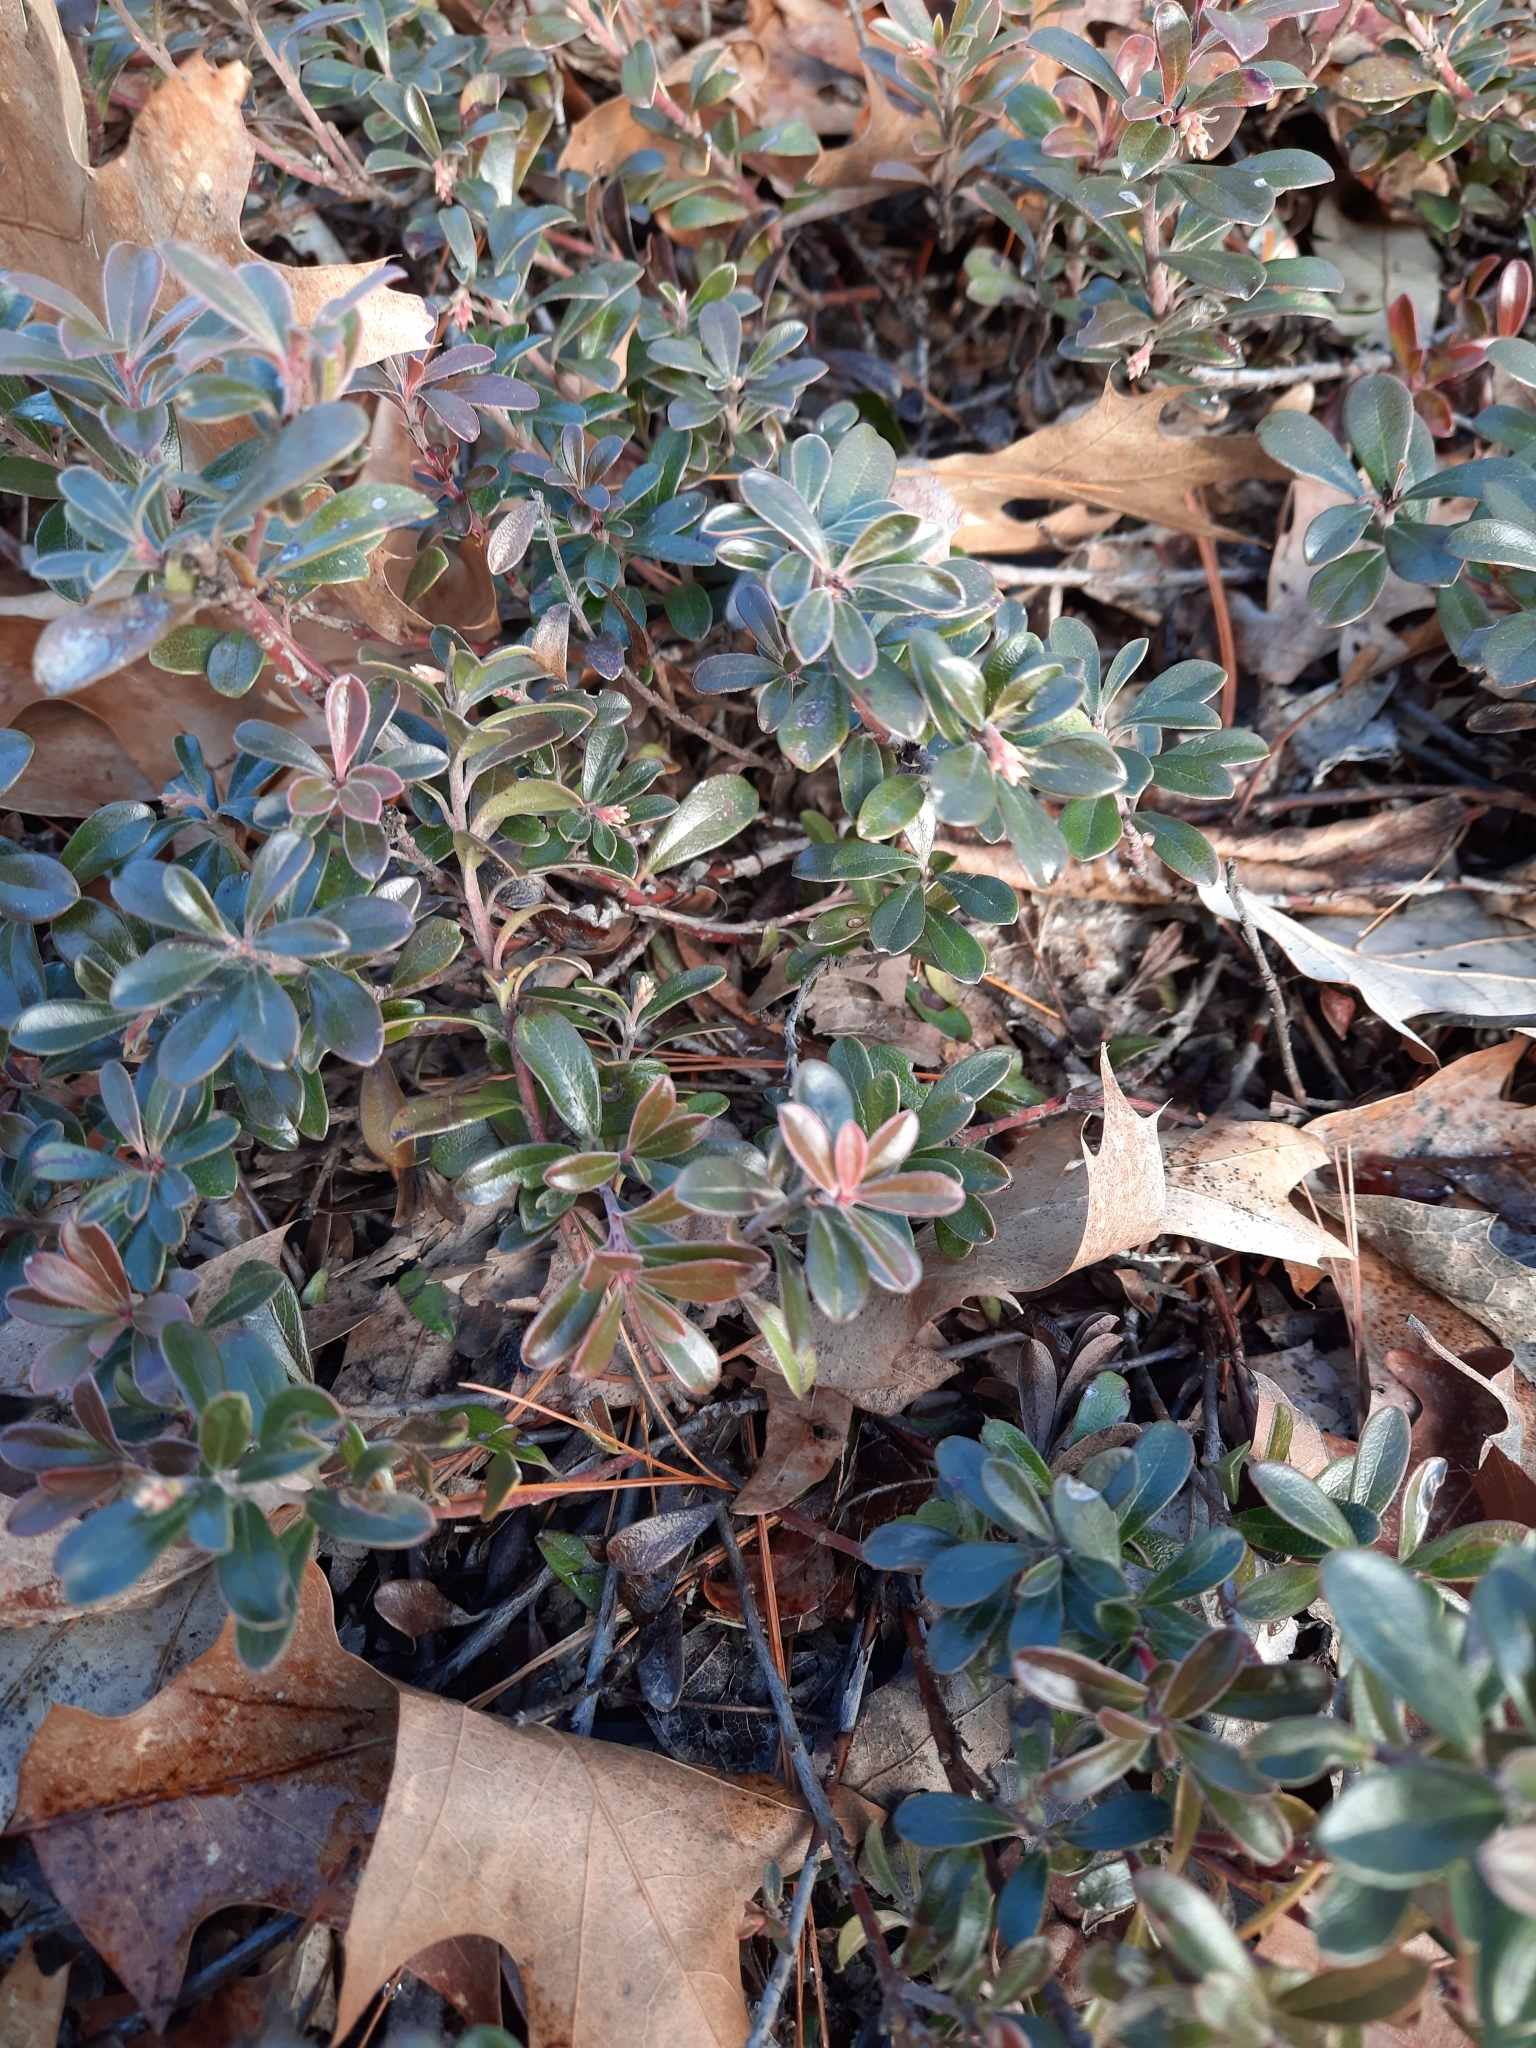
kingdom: Plantae
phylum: Tracheophyta
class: Magnoliopsida
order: Ericales
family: Ericaceae
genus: Arctostaphylos
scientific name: Arctostaphylos uva-ursi
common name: Bearberry
